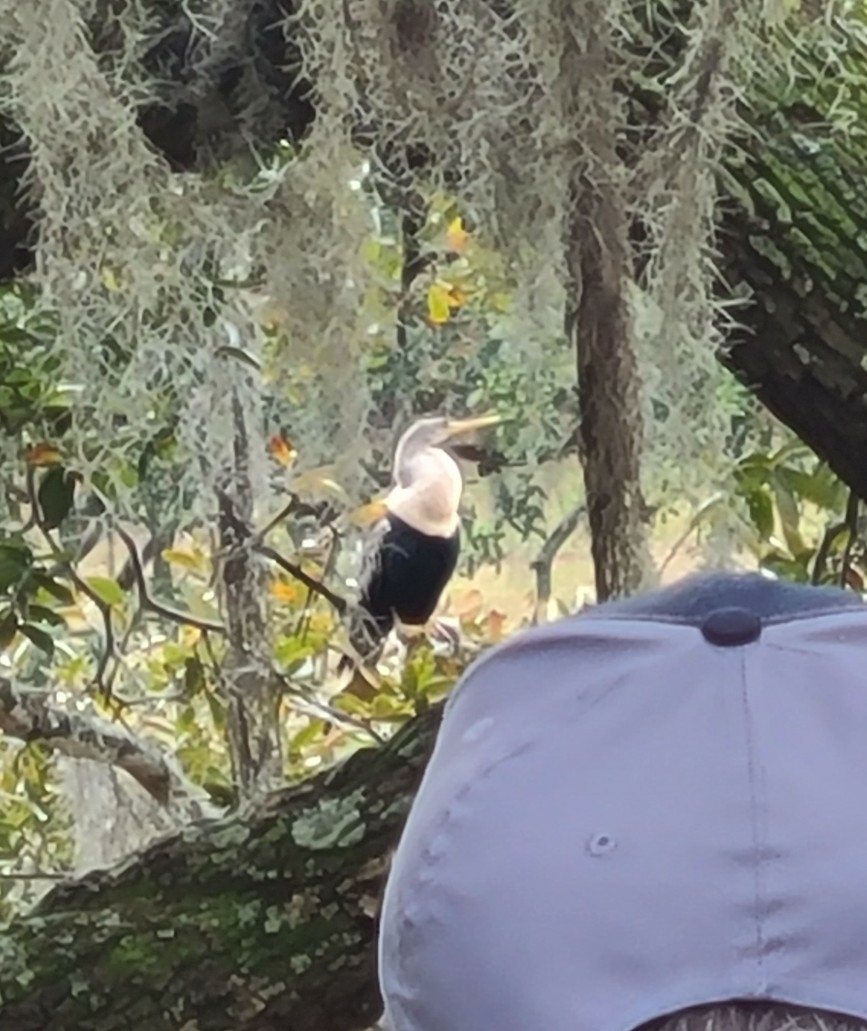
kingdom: Animalia
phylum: Chordata
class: Aves
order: Suliformes
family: Anhingidae
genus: Anhinga
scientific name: Anhinga anhinga
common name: Anhinga
